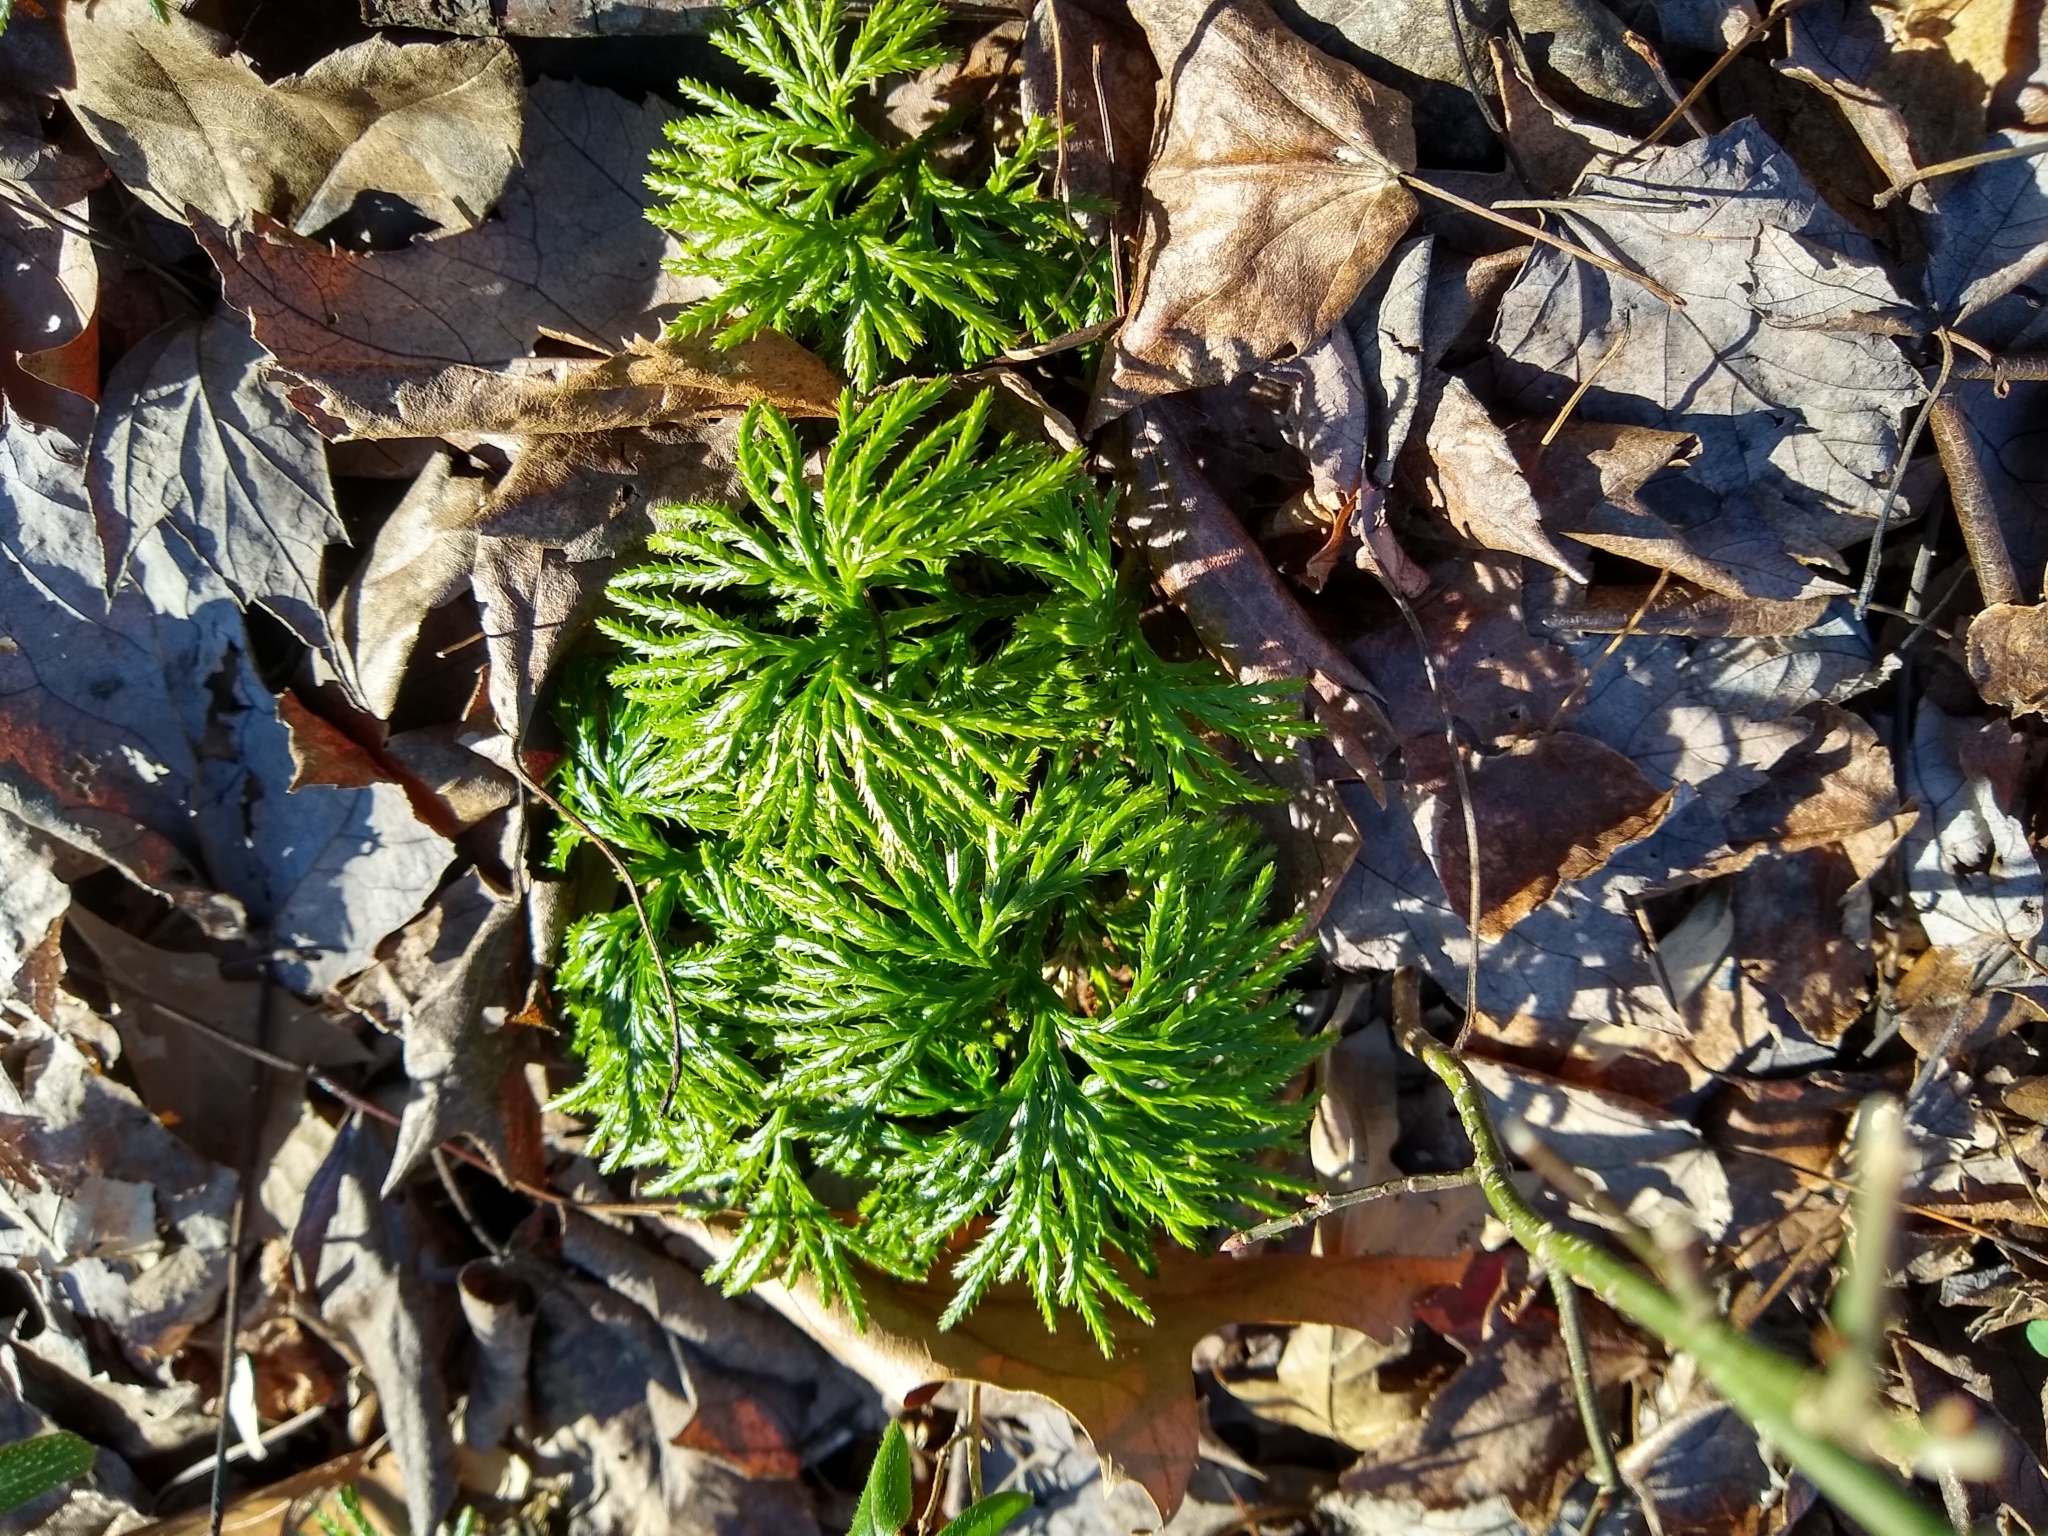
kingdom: Plantae
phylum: Tracheophyta
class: Lycopodiopsida
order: Lycopodiales
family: Lycopodiaceae
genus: Diphasiastrum
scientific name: Diphasiastrum digitatum
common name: Southern running-pine
